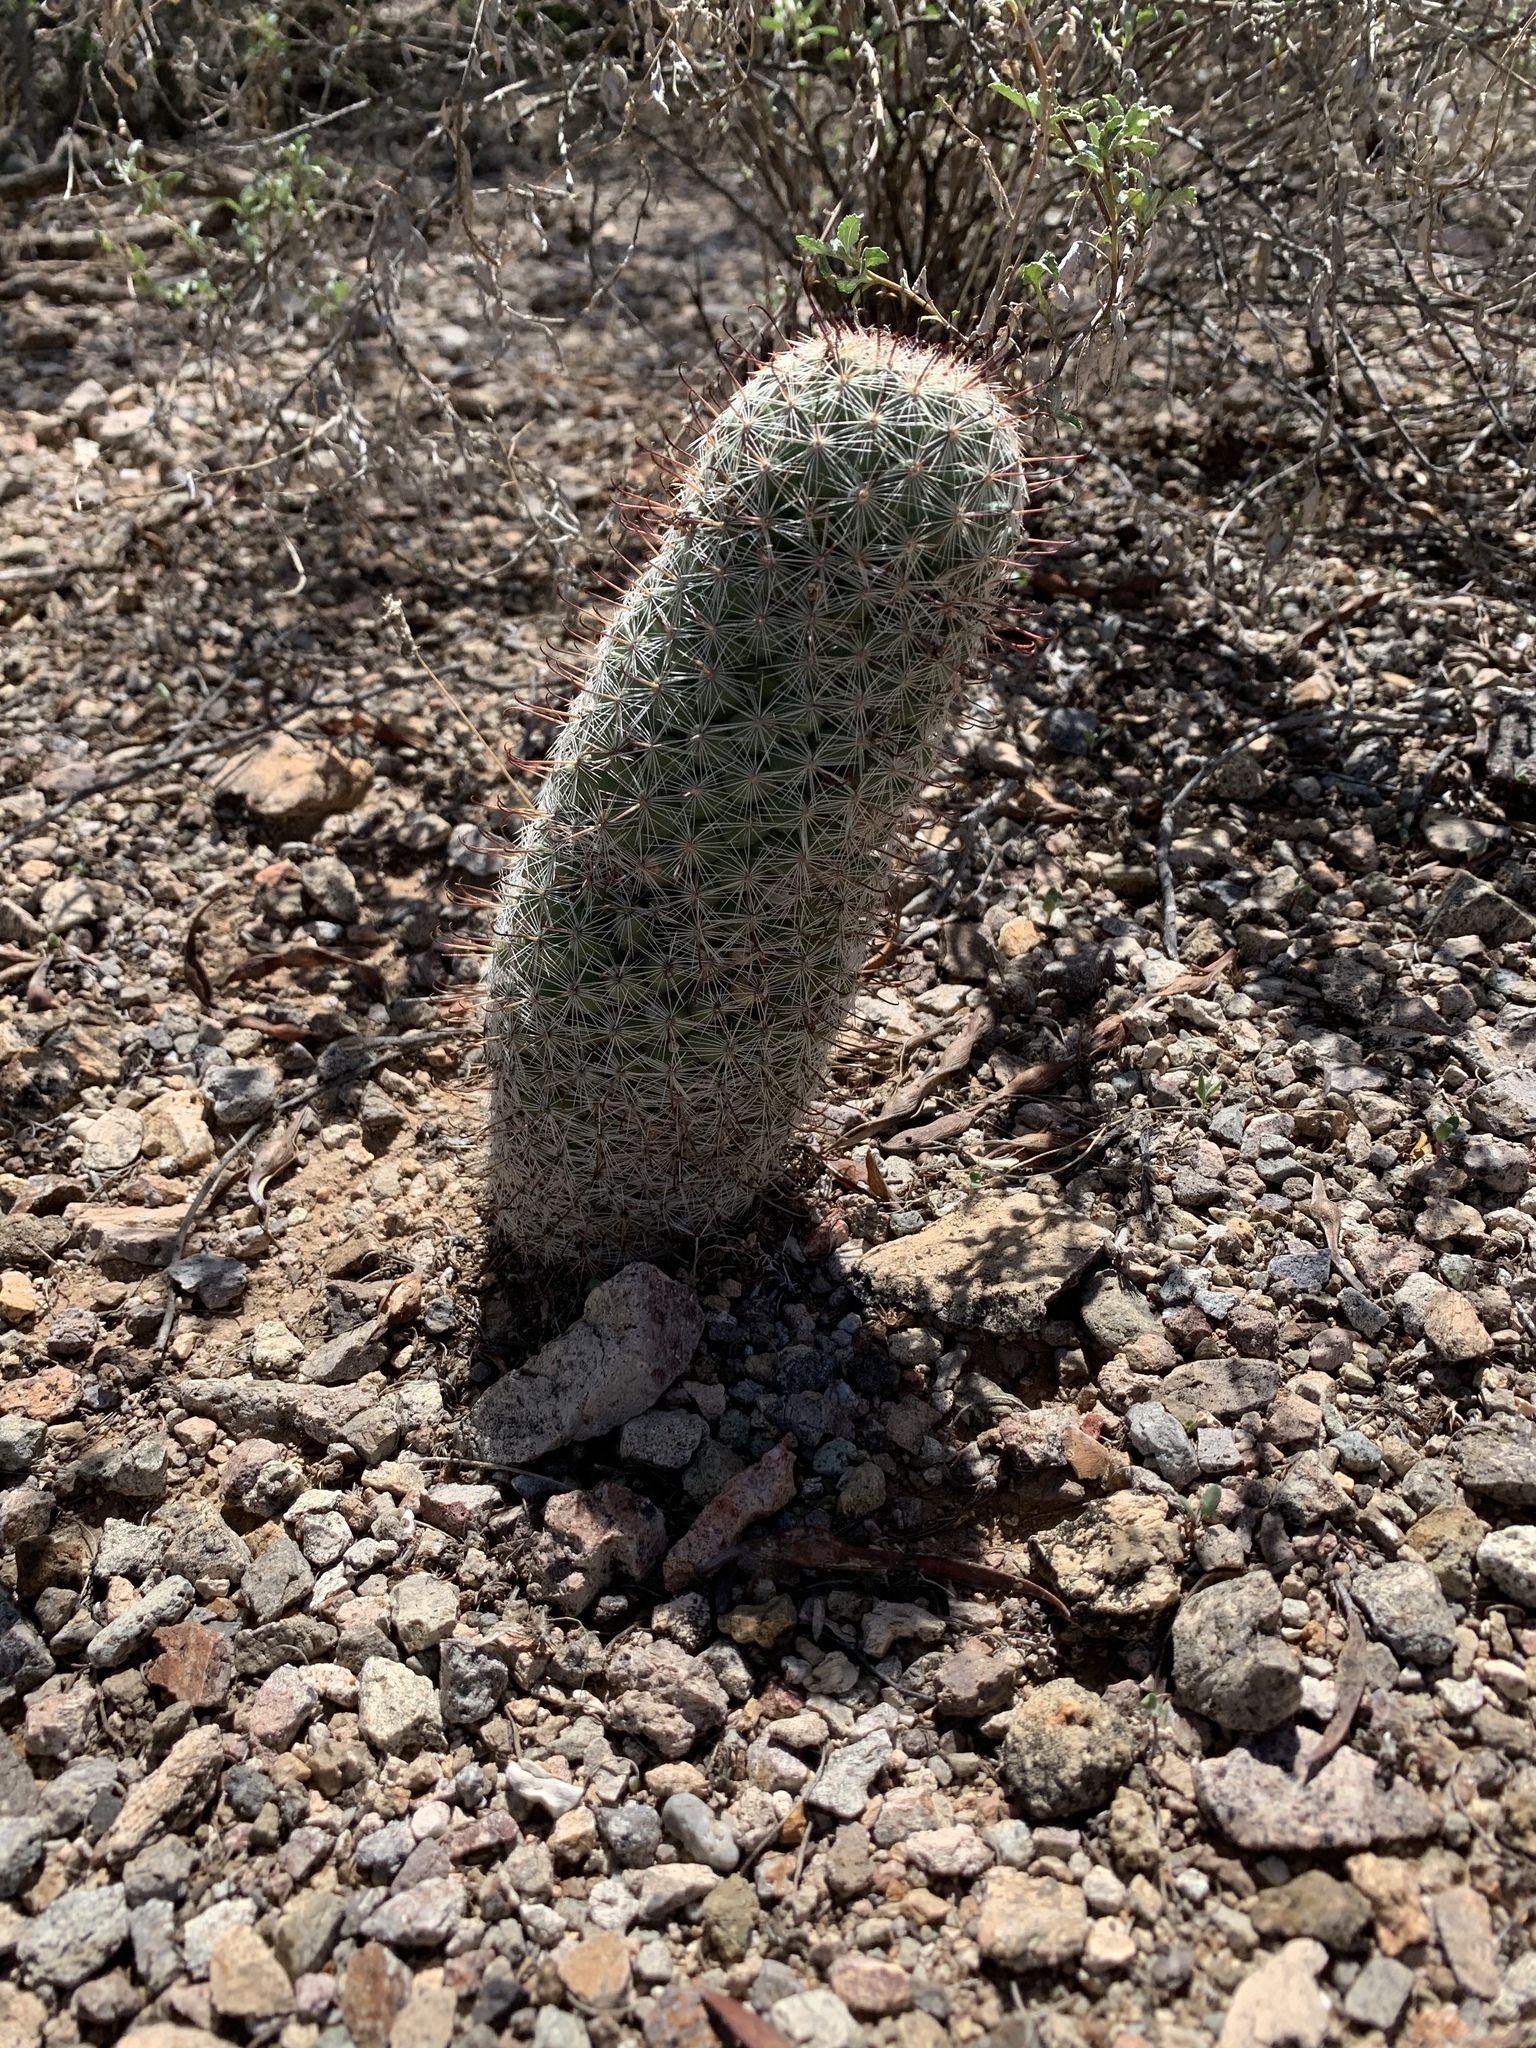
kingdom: Plantae
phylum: Tracheophyta
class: Magnoliopsida
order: Caryophyllales
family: Cactaceae
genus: Cochemiea
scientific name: Cochemiea grahamii
